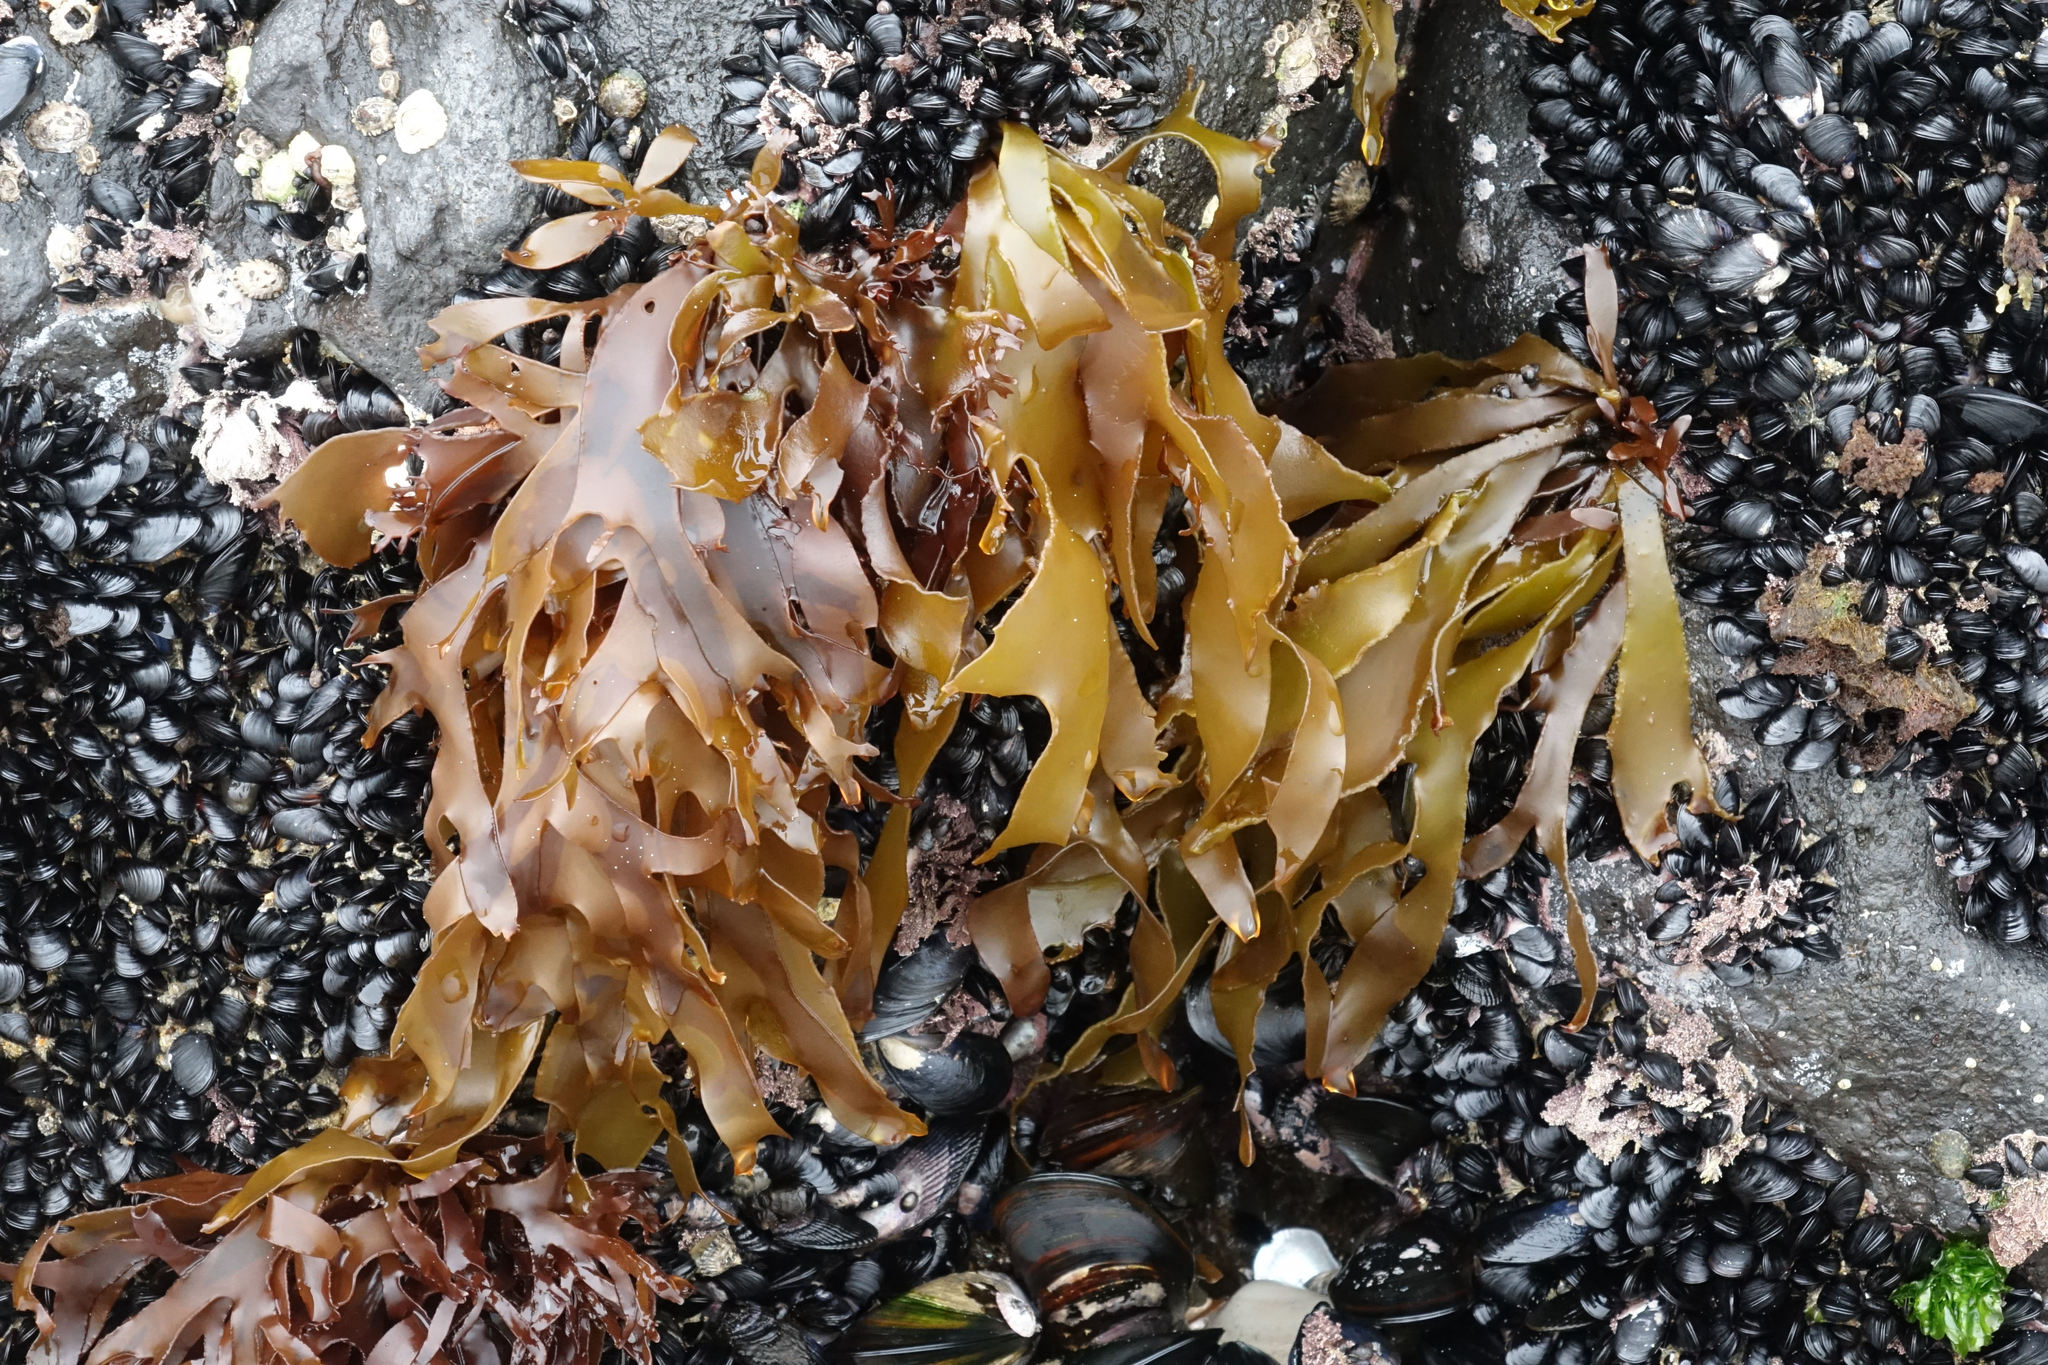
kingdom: Plantae
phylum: Rhodophyta
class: Florideophyceae
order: Halymeniales
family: Halymeniaceae
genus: Pachymenia
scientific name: Pachymenia dichotoma
